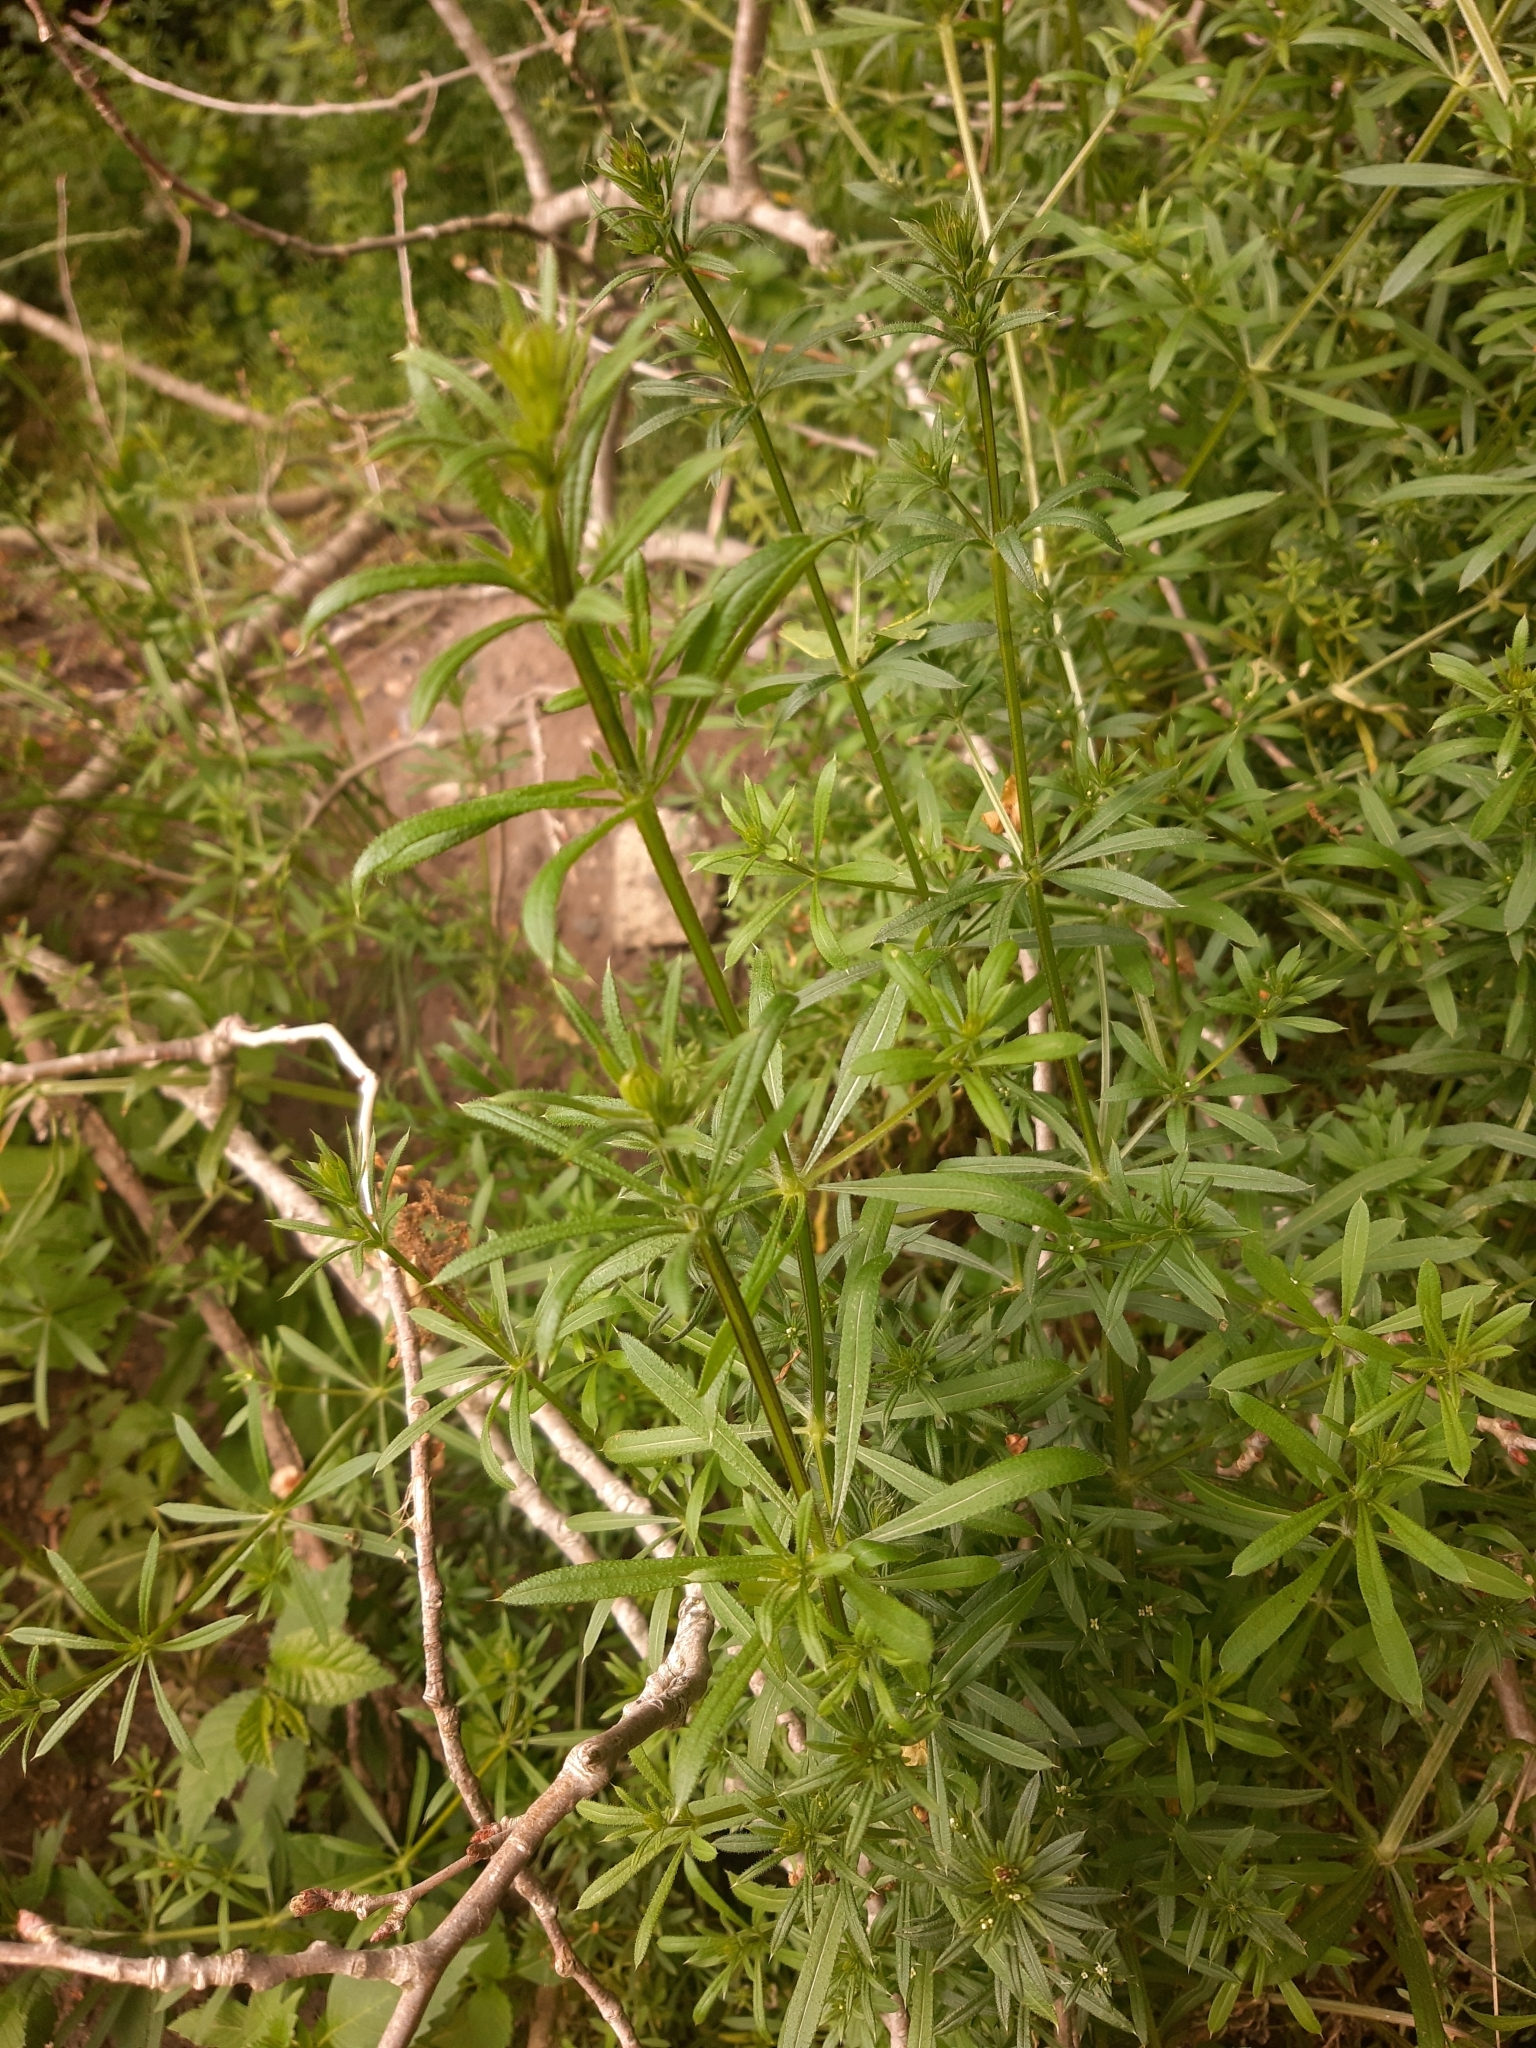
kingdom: Plantae
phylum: Tracheophyta
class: Magnoliopsida
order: Gentianales
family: Rubiaceae
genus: Galium
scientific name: Galium aparine
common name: Cleavers
